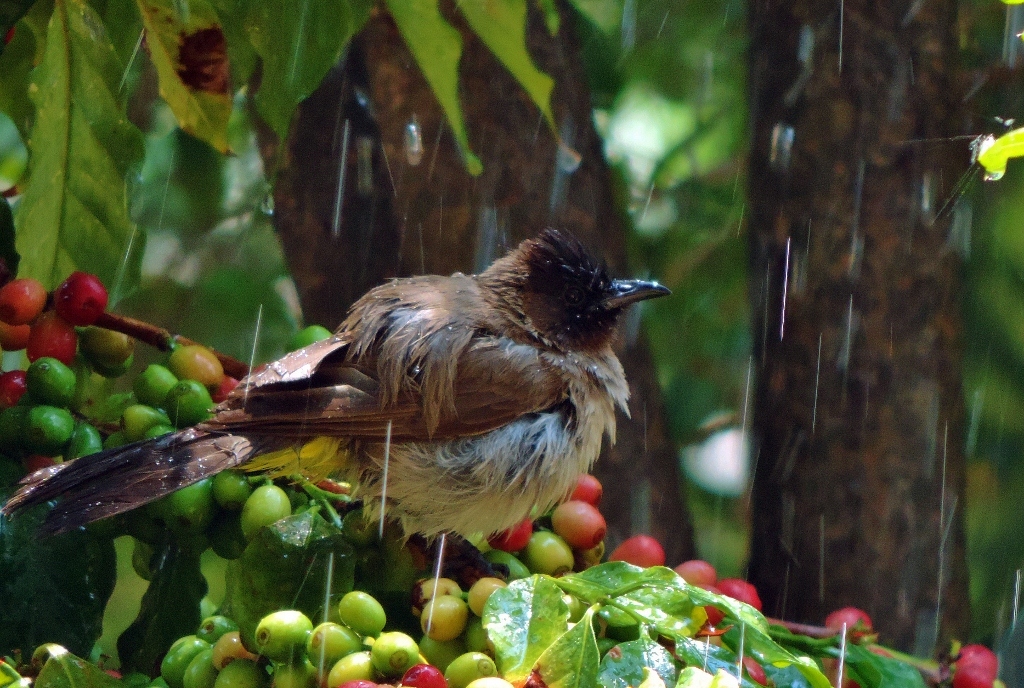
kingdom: Animalia
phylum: Chordata
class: Aves
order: Passeriformes
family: Pycnonotidae
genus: Pycnonotus
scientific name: Pycnonotus barbatus
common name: Common bulbul
